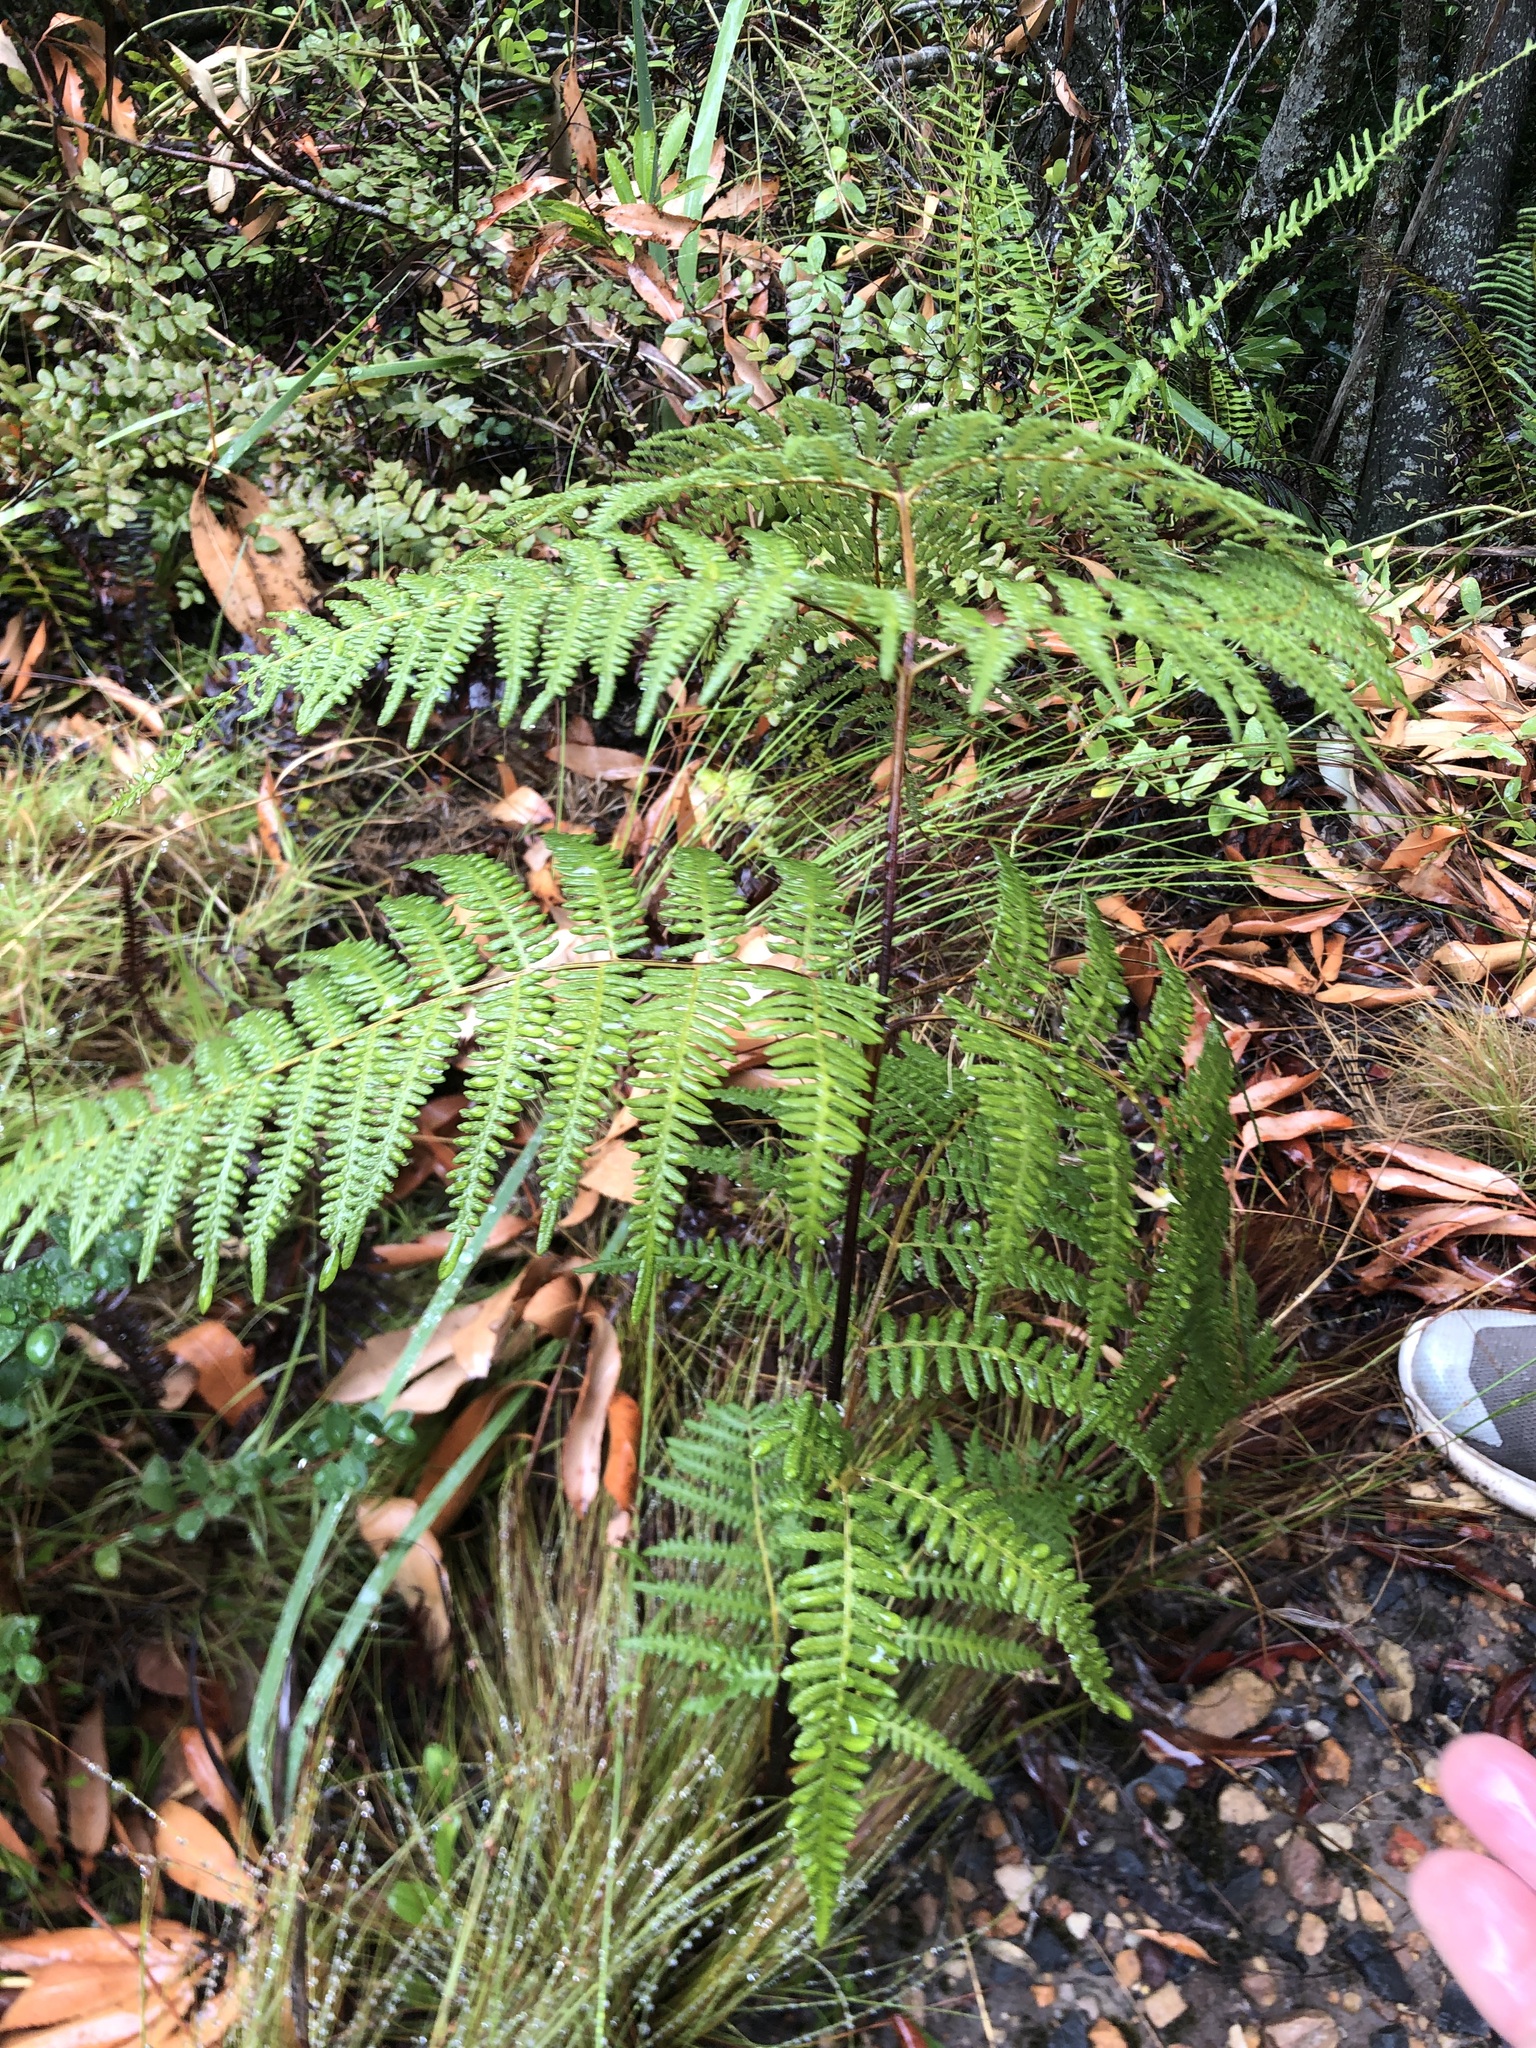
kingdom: Plantae
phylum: Tracheophyta
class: Polypodiopsida
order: Polypodiales
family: Dennstaedtiaceae
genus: Pteridium
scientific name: Pteridium aquilinum
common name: Bracken
